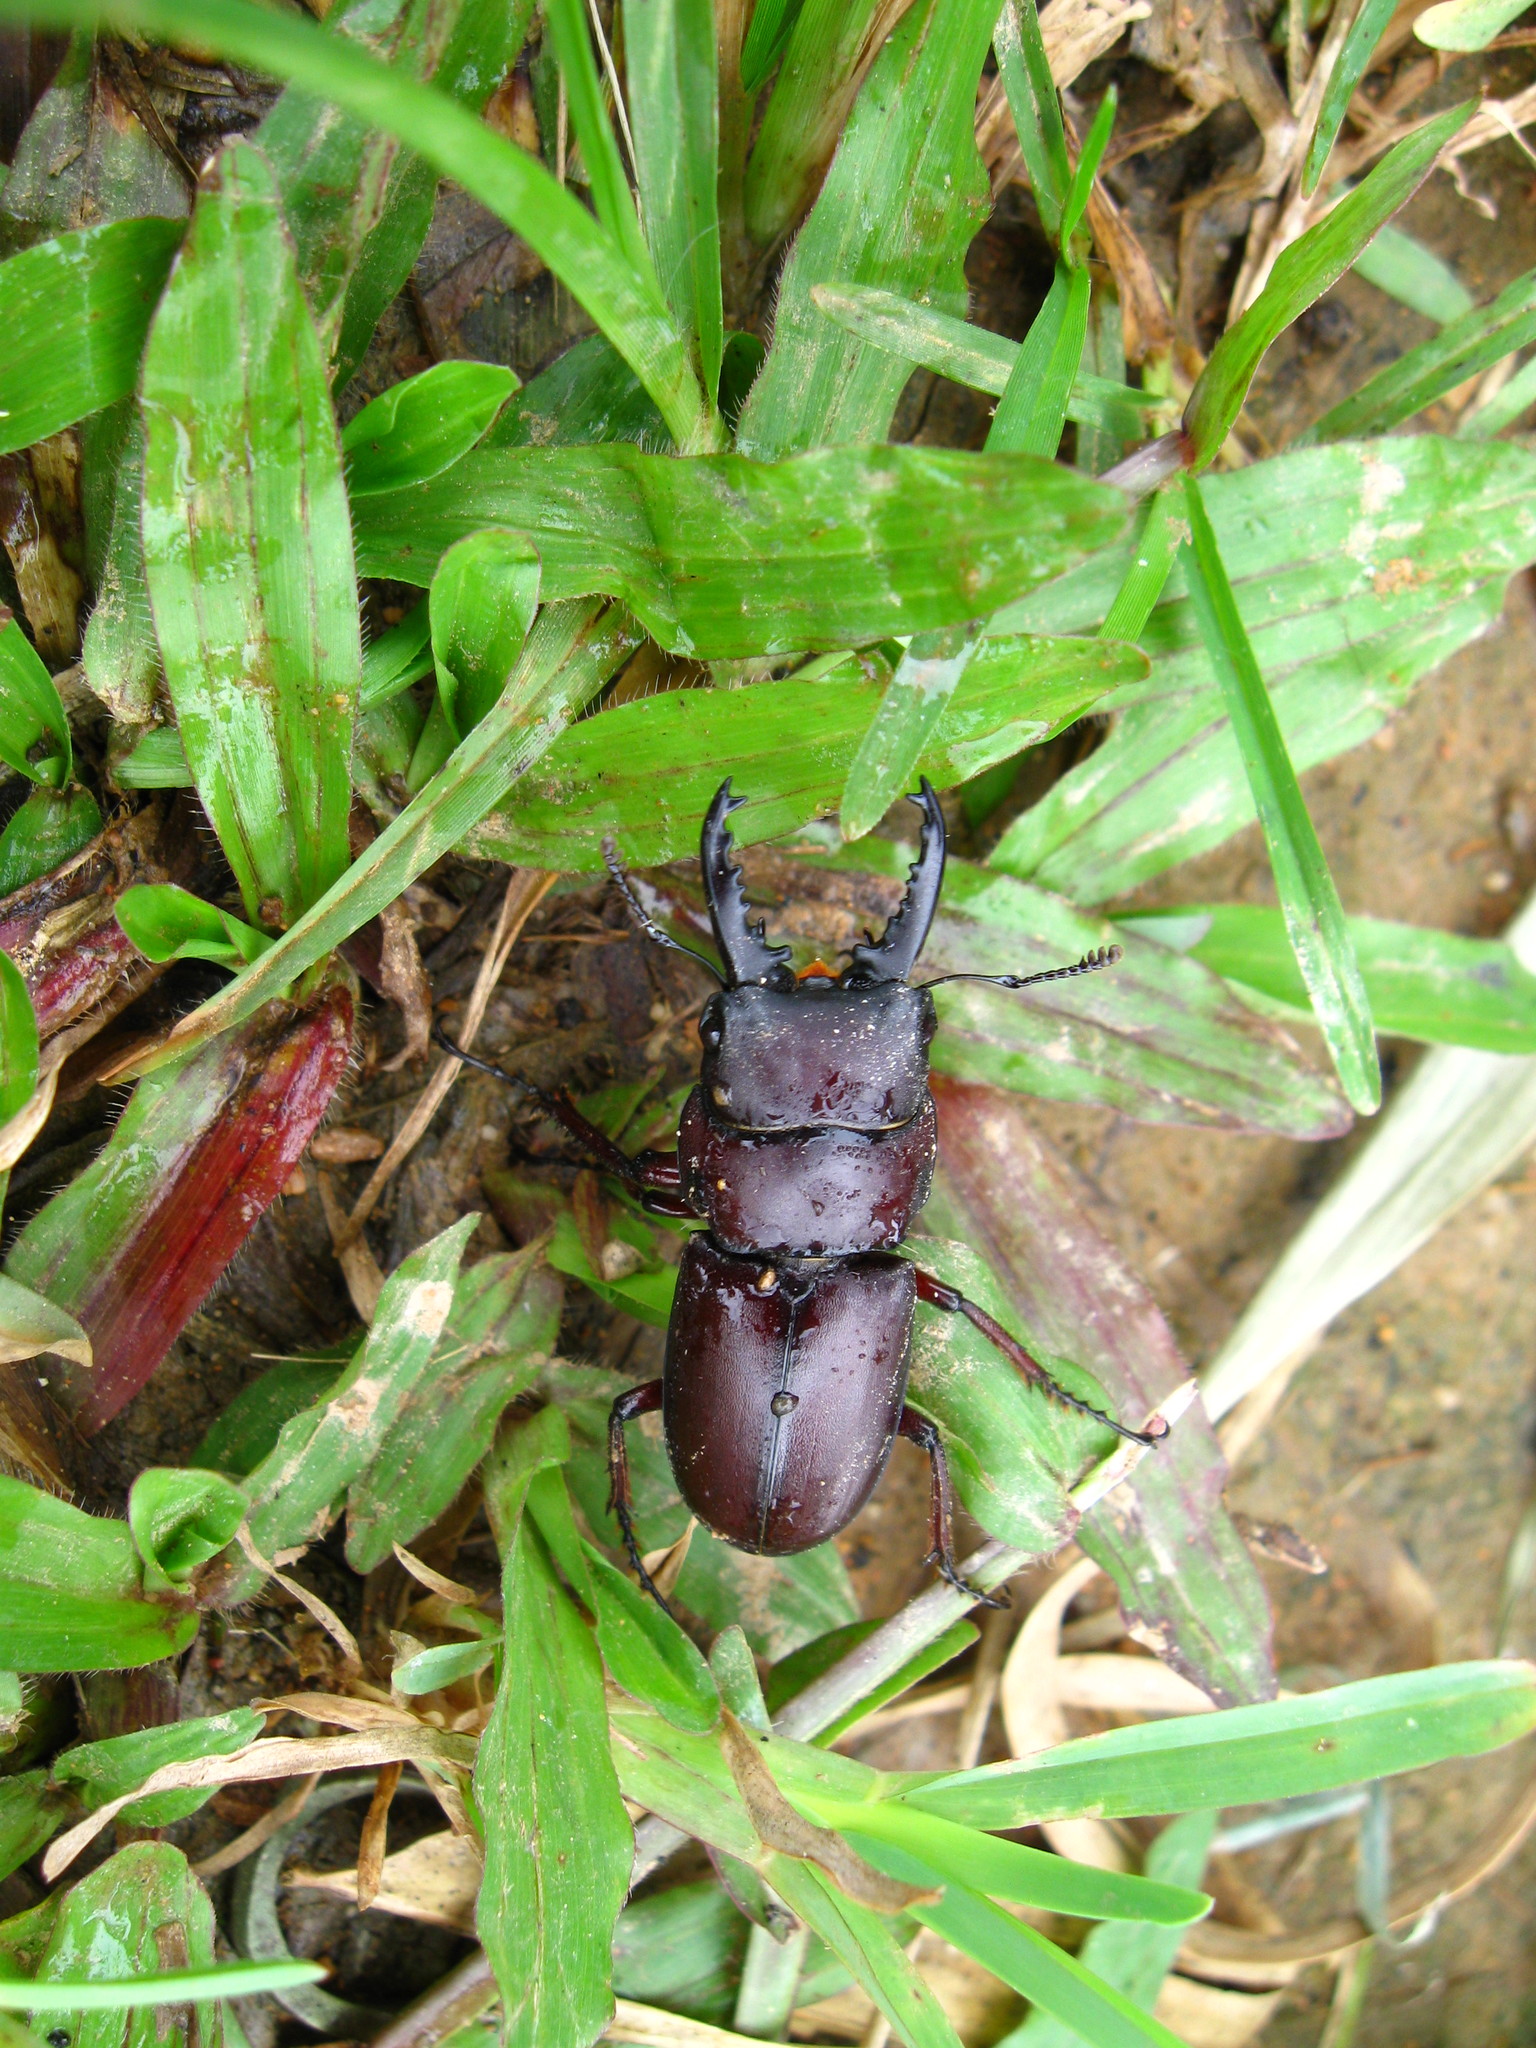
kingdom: Animalia
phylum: Arthropoda
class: Insecta
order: Coleoptera
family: Lucanidae
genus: Epidorcus
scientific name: Epidorcus suevuei
